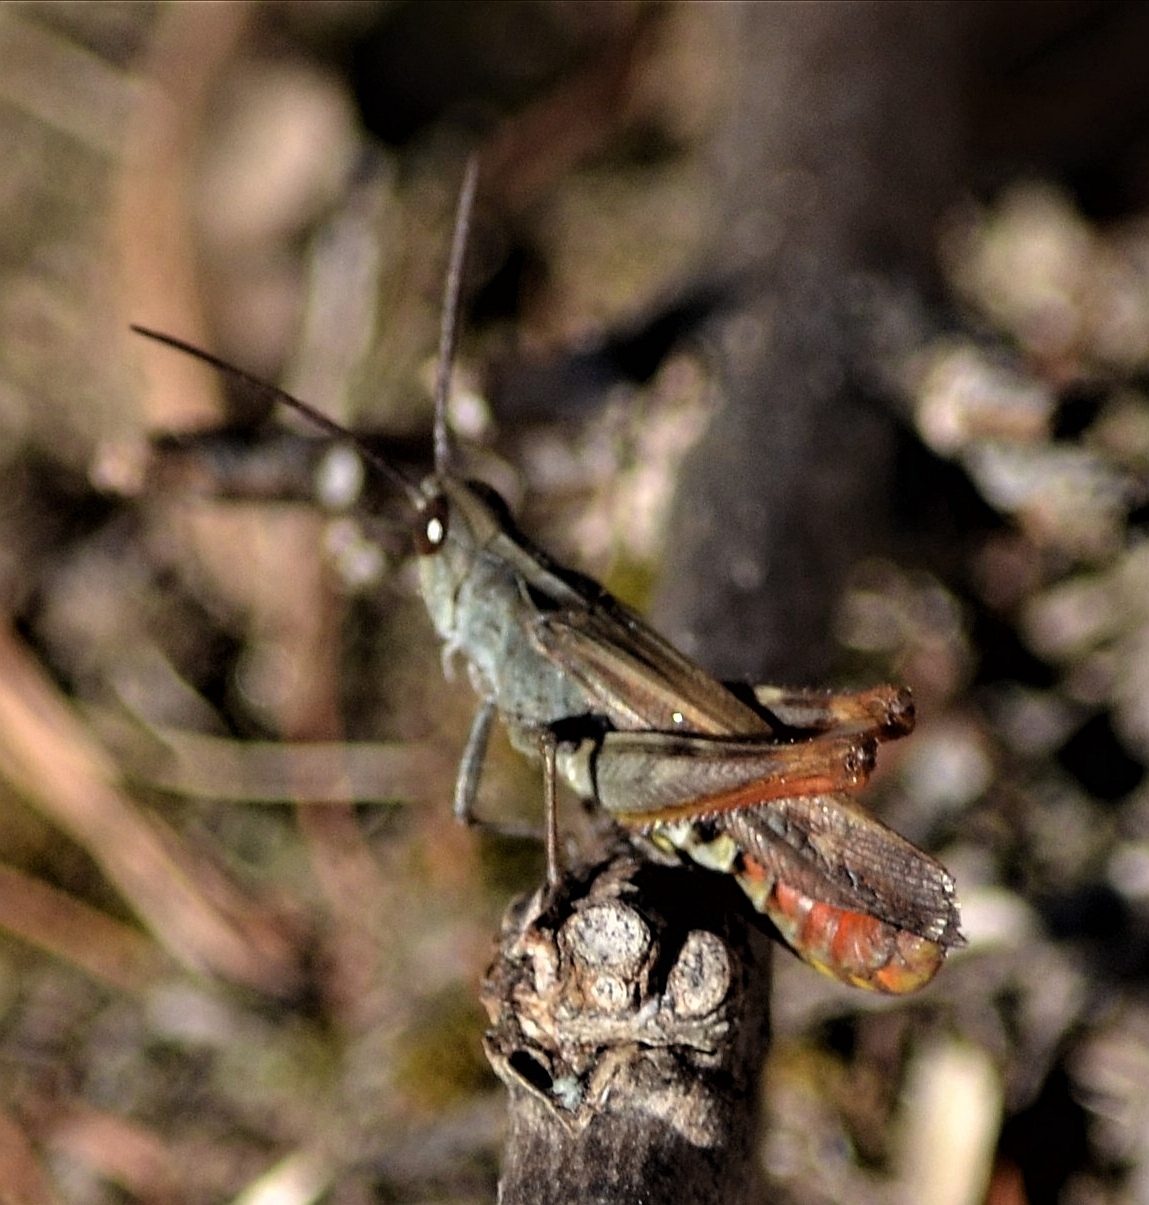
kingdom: Animalia
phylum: Arthropoda
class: Insecta
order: Orthoptera
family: Acrididae
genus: Chorthippus
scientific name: Chorthippus biguttulus
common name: Bow-winged grasshopper
